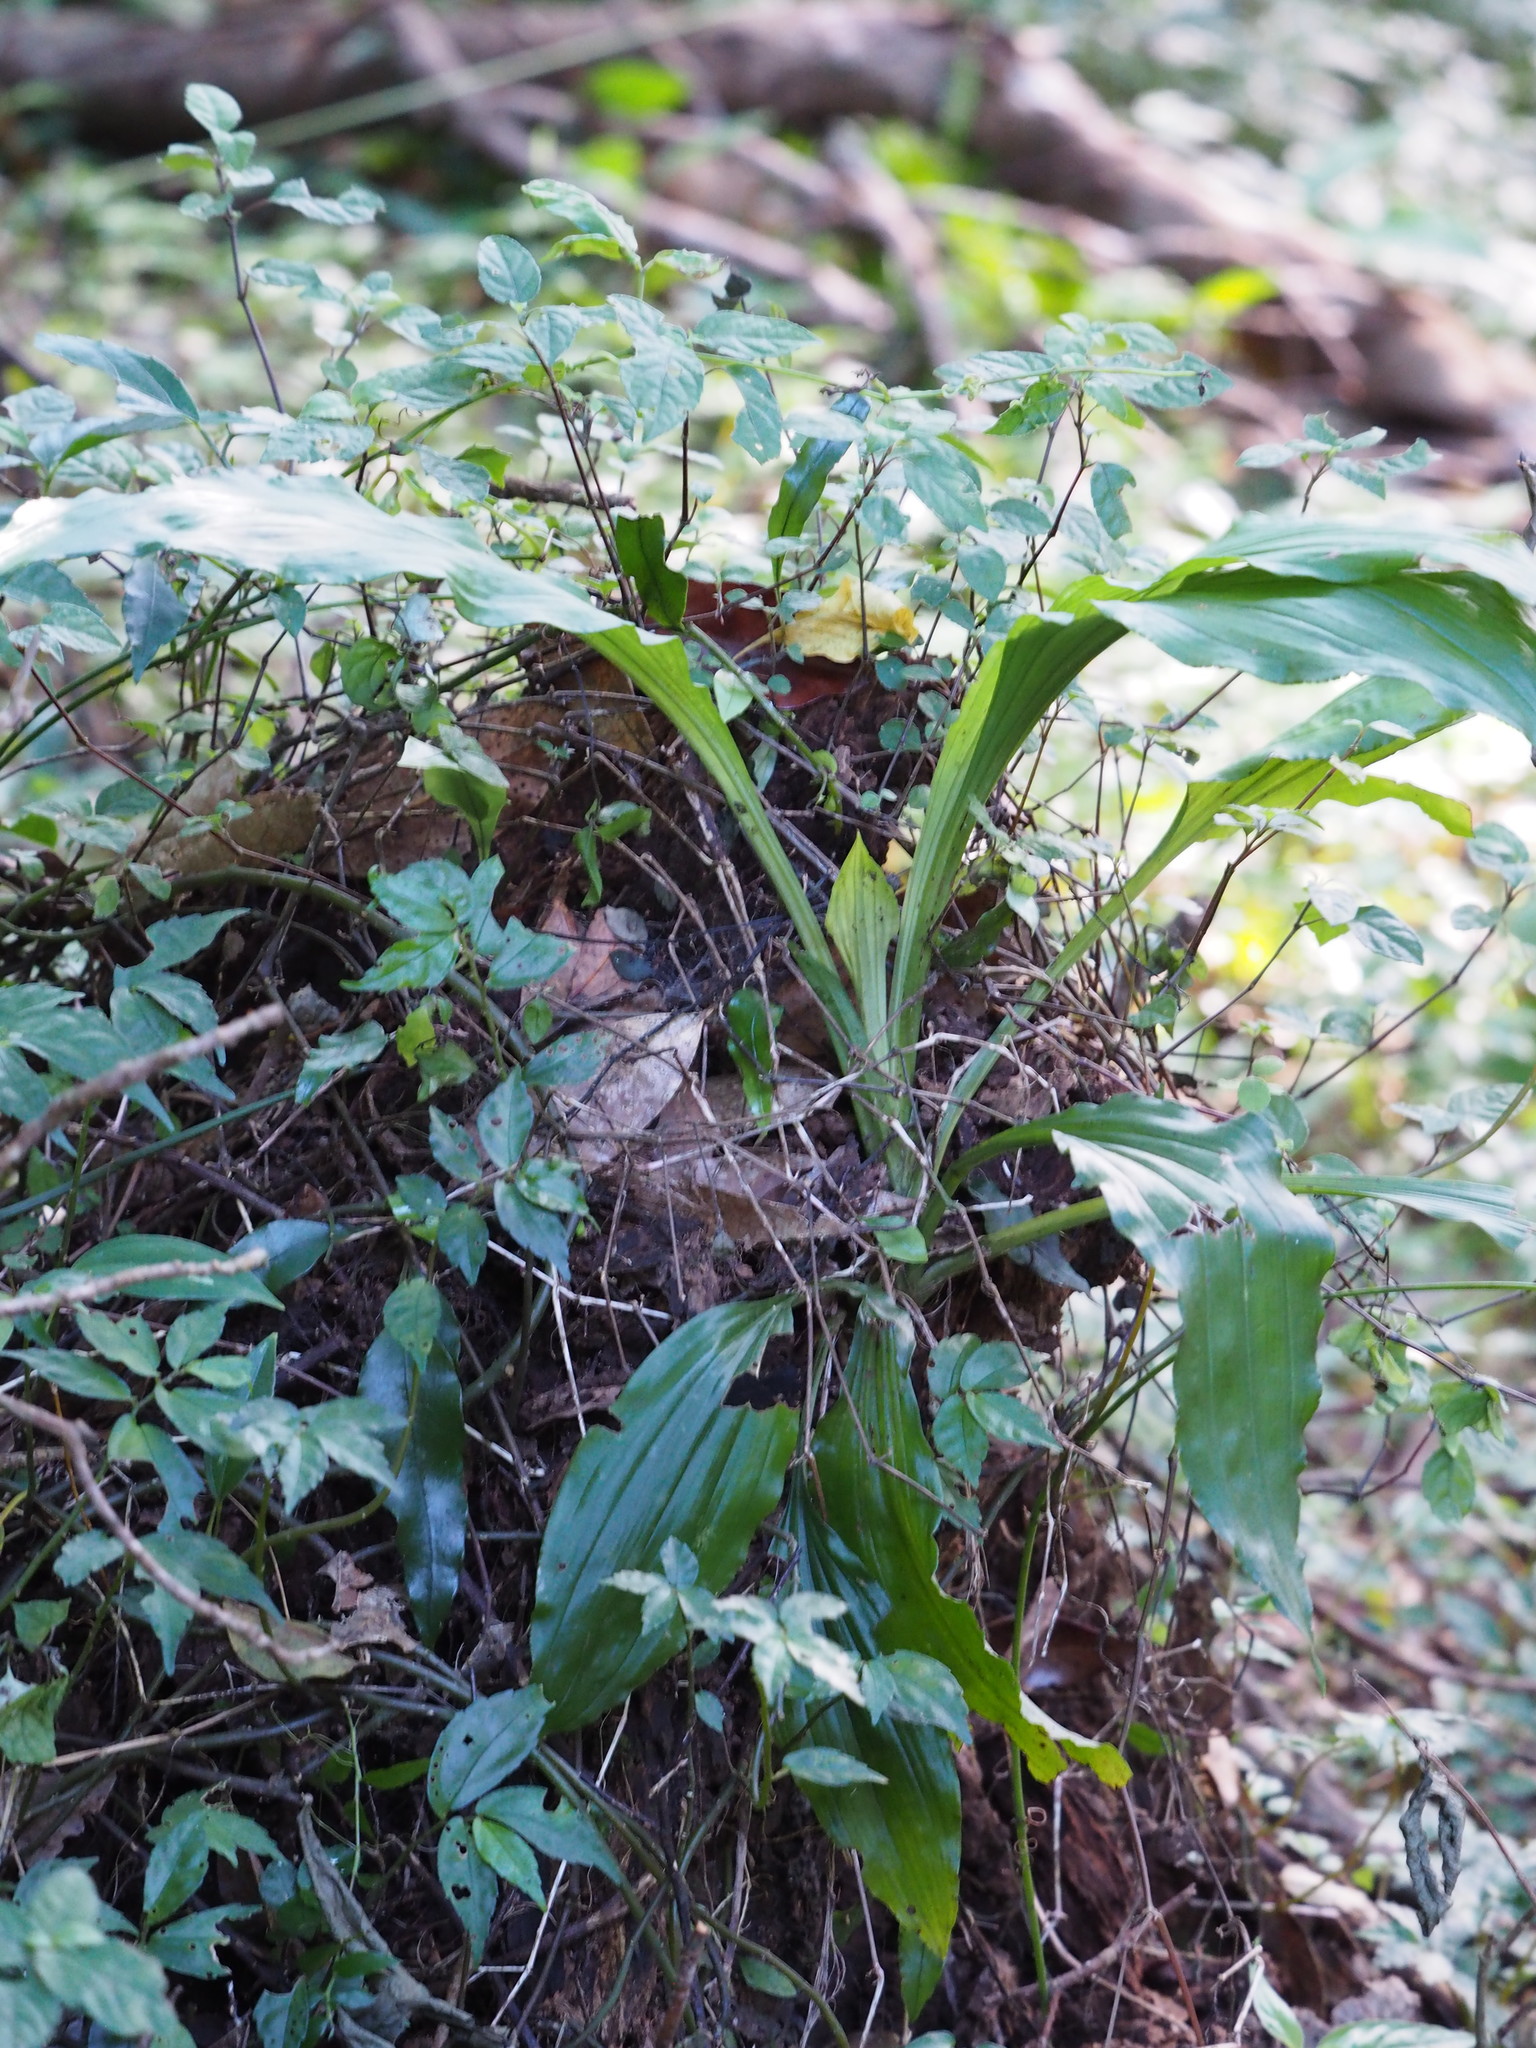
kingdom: Plantae
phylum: Tracheophyta
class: Liliopsida
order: Asparagales
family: Orchidaceae
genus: Calanthe
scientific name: Calanthe triplicata
